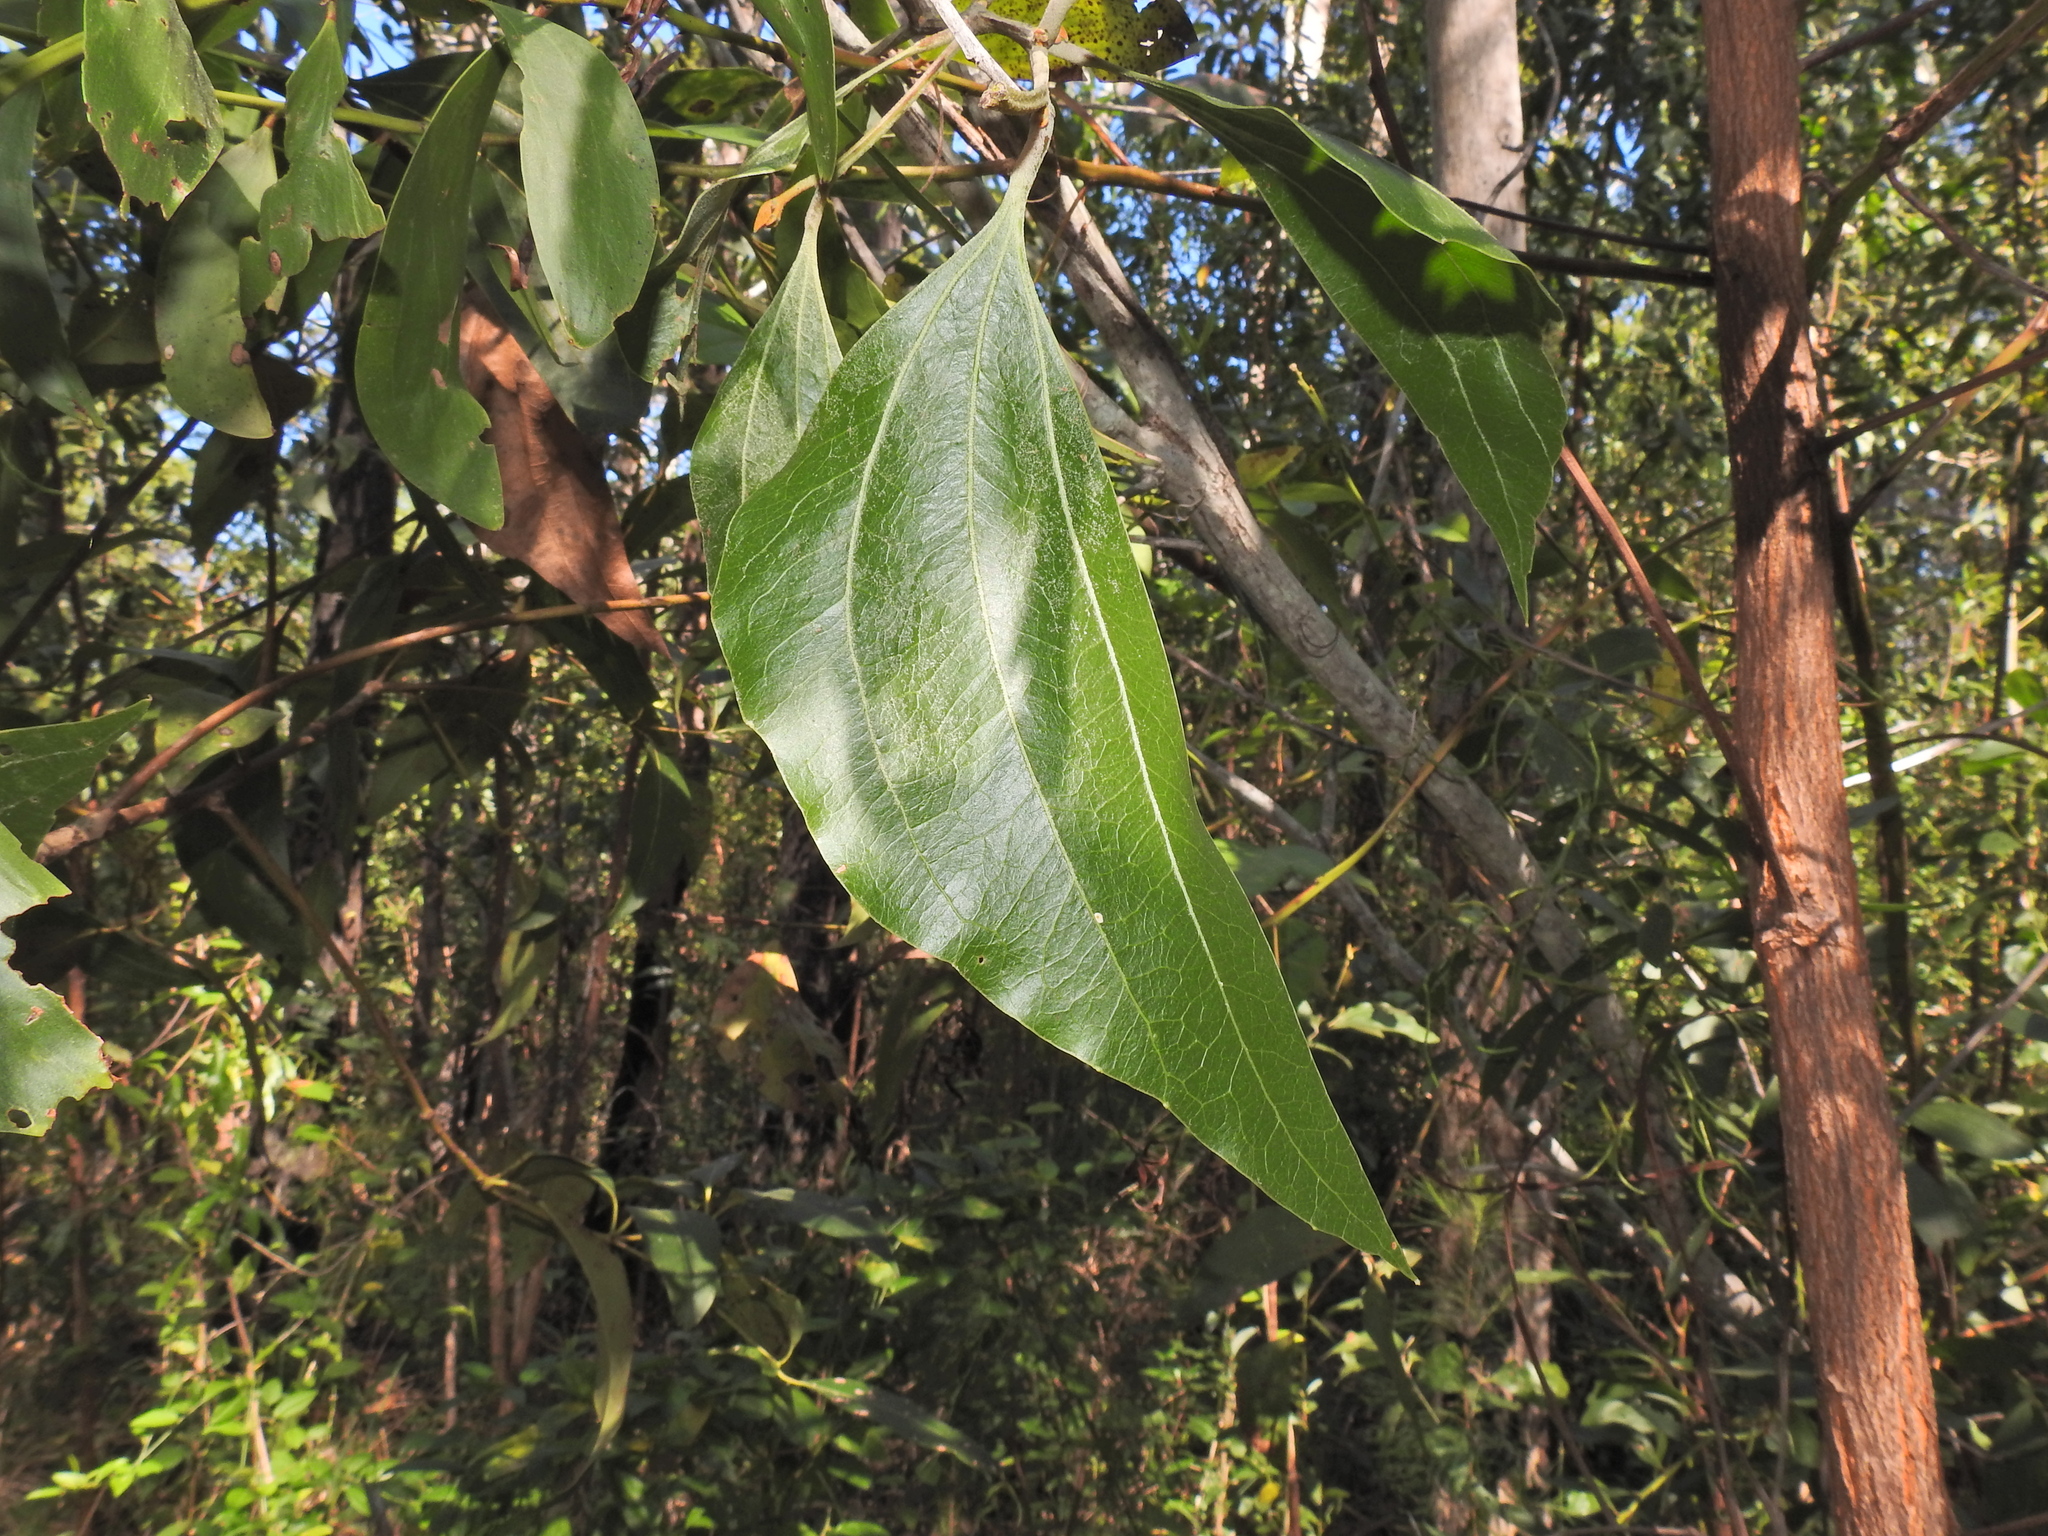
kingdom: Plantae
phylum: Tracheophyta
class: Magnoliopsida
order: Fabales
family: Fabaceae
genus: Acacia
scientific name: Acacia flavescens
